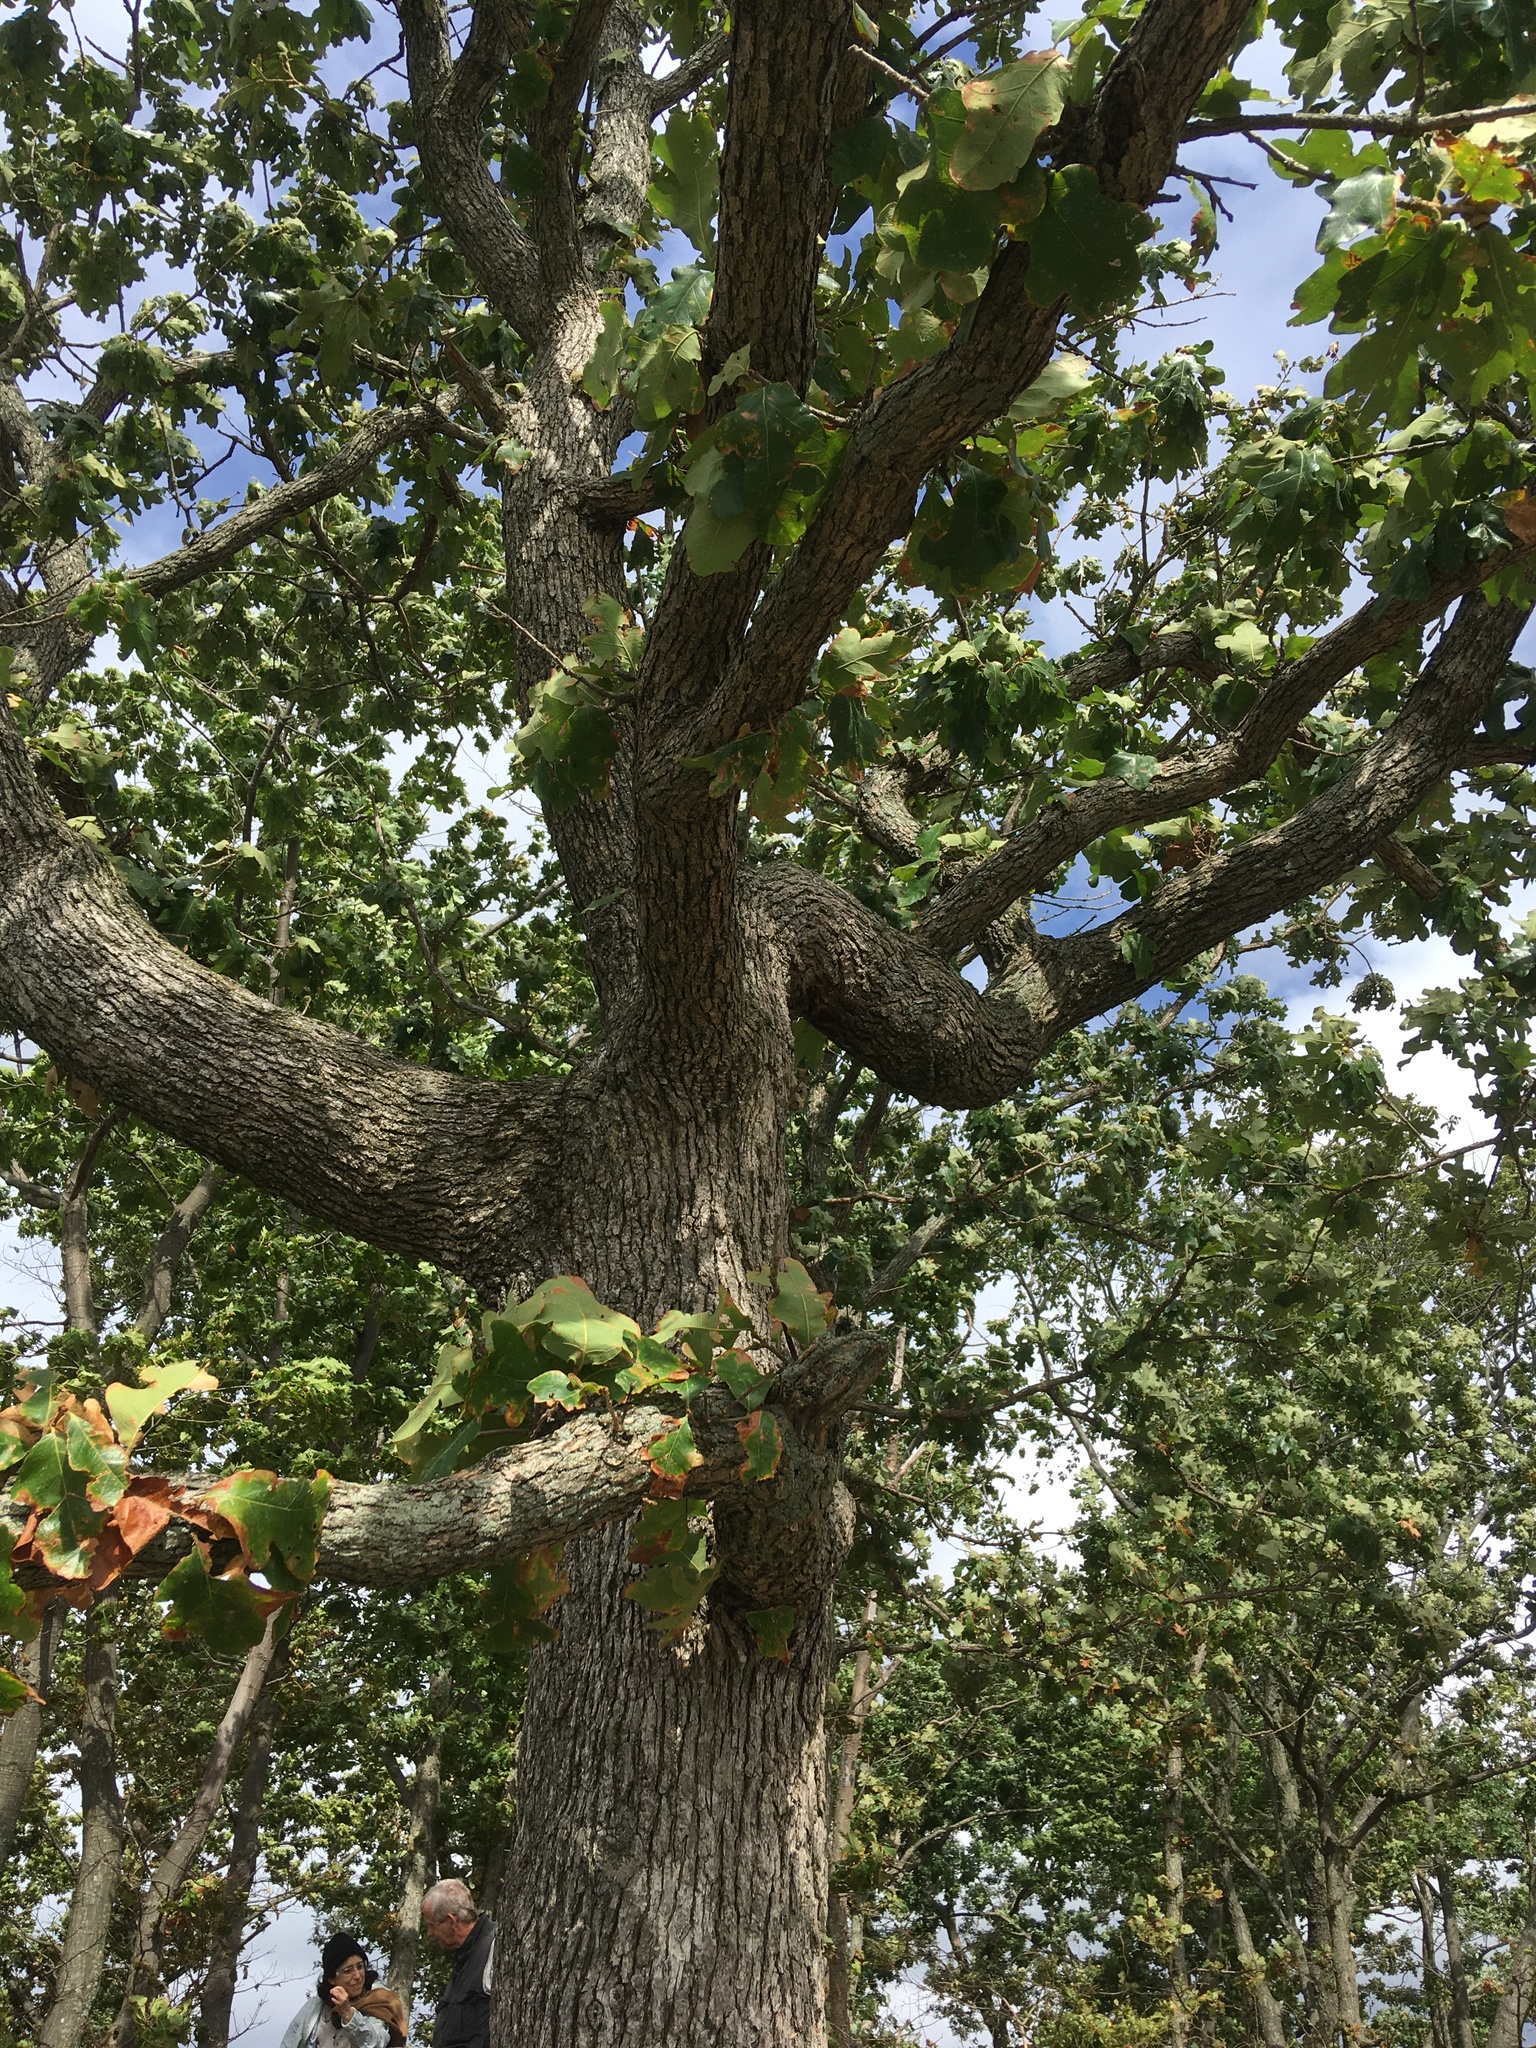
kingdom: Plantae
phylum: Tracheophyta
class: Magnoliopsida
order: Fagales
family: Fagaceae
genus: Quercus
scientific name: Quercus stellata
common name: Post oak
